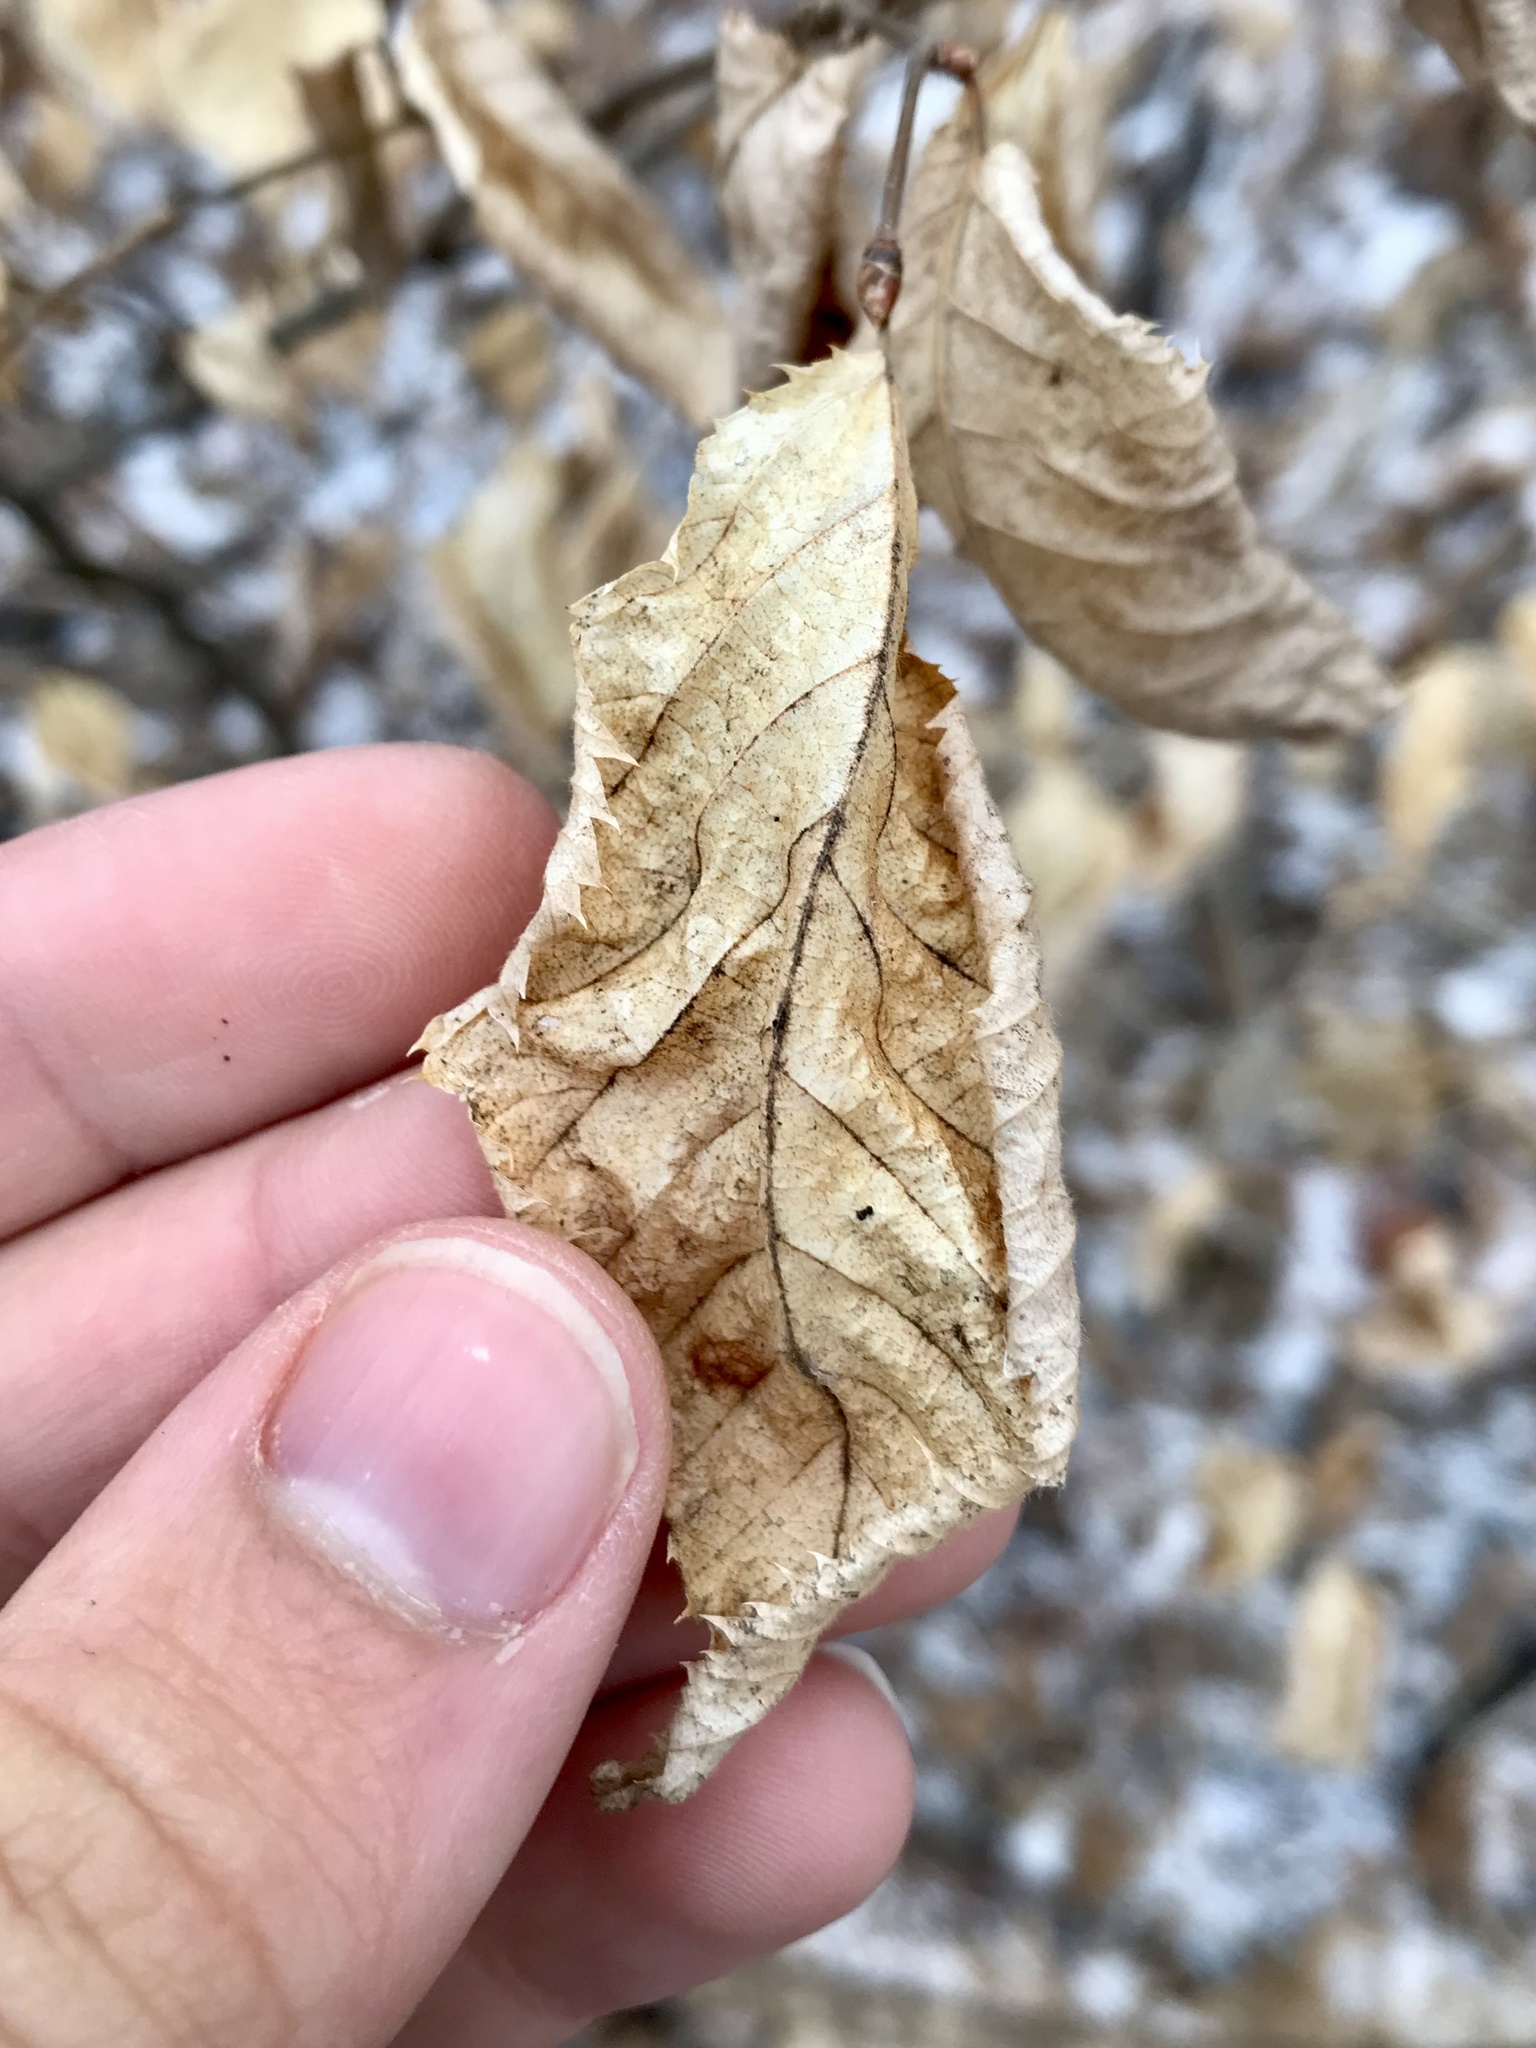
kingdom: Plantae
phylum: Tracheophyta
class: Magnoliopsida
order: Fagales
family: Betulaceae
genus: Ostrya
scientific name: Ostrya virginiana
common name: Ironwood
